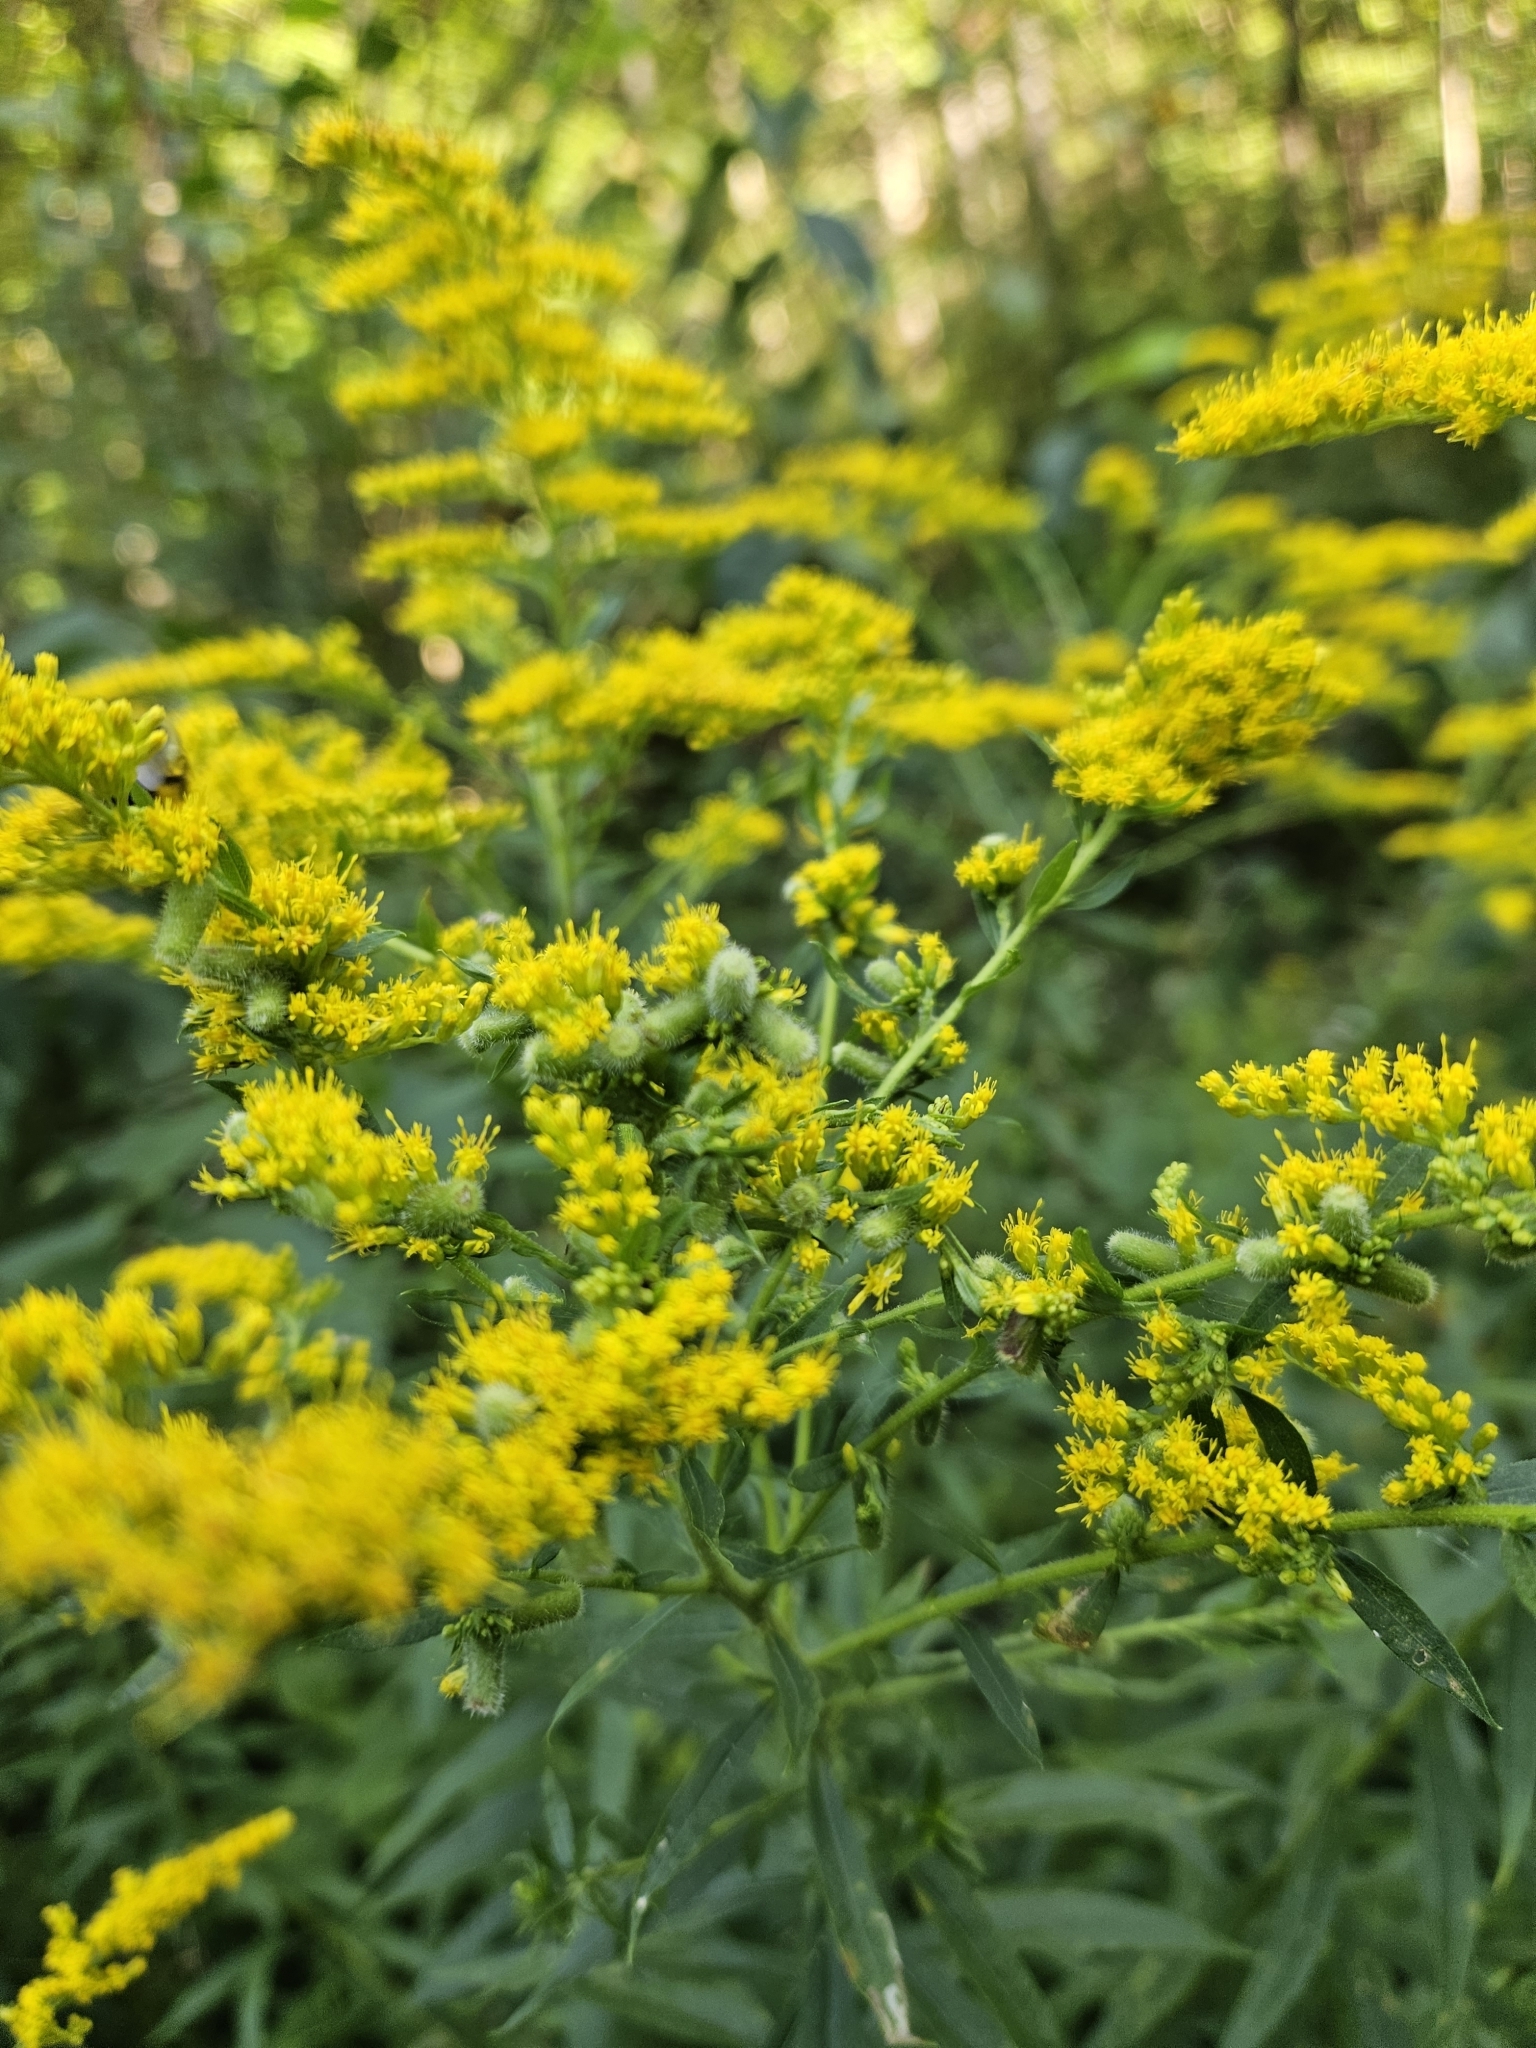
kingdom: Animalia
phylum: Arthropoda
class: Insecta
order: Diptera
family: Cecidomyiidae
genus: Rhopalomyia
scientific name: Rhopalomyia anthophila
